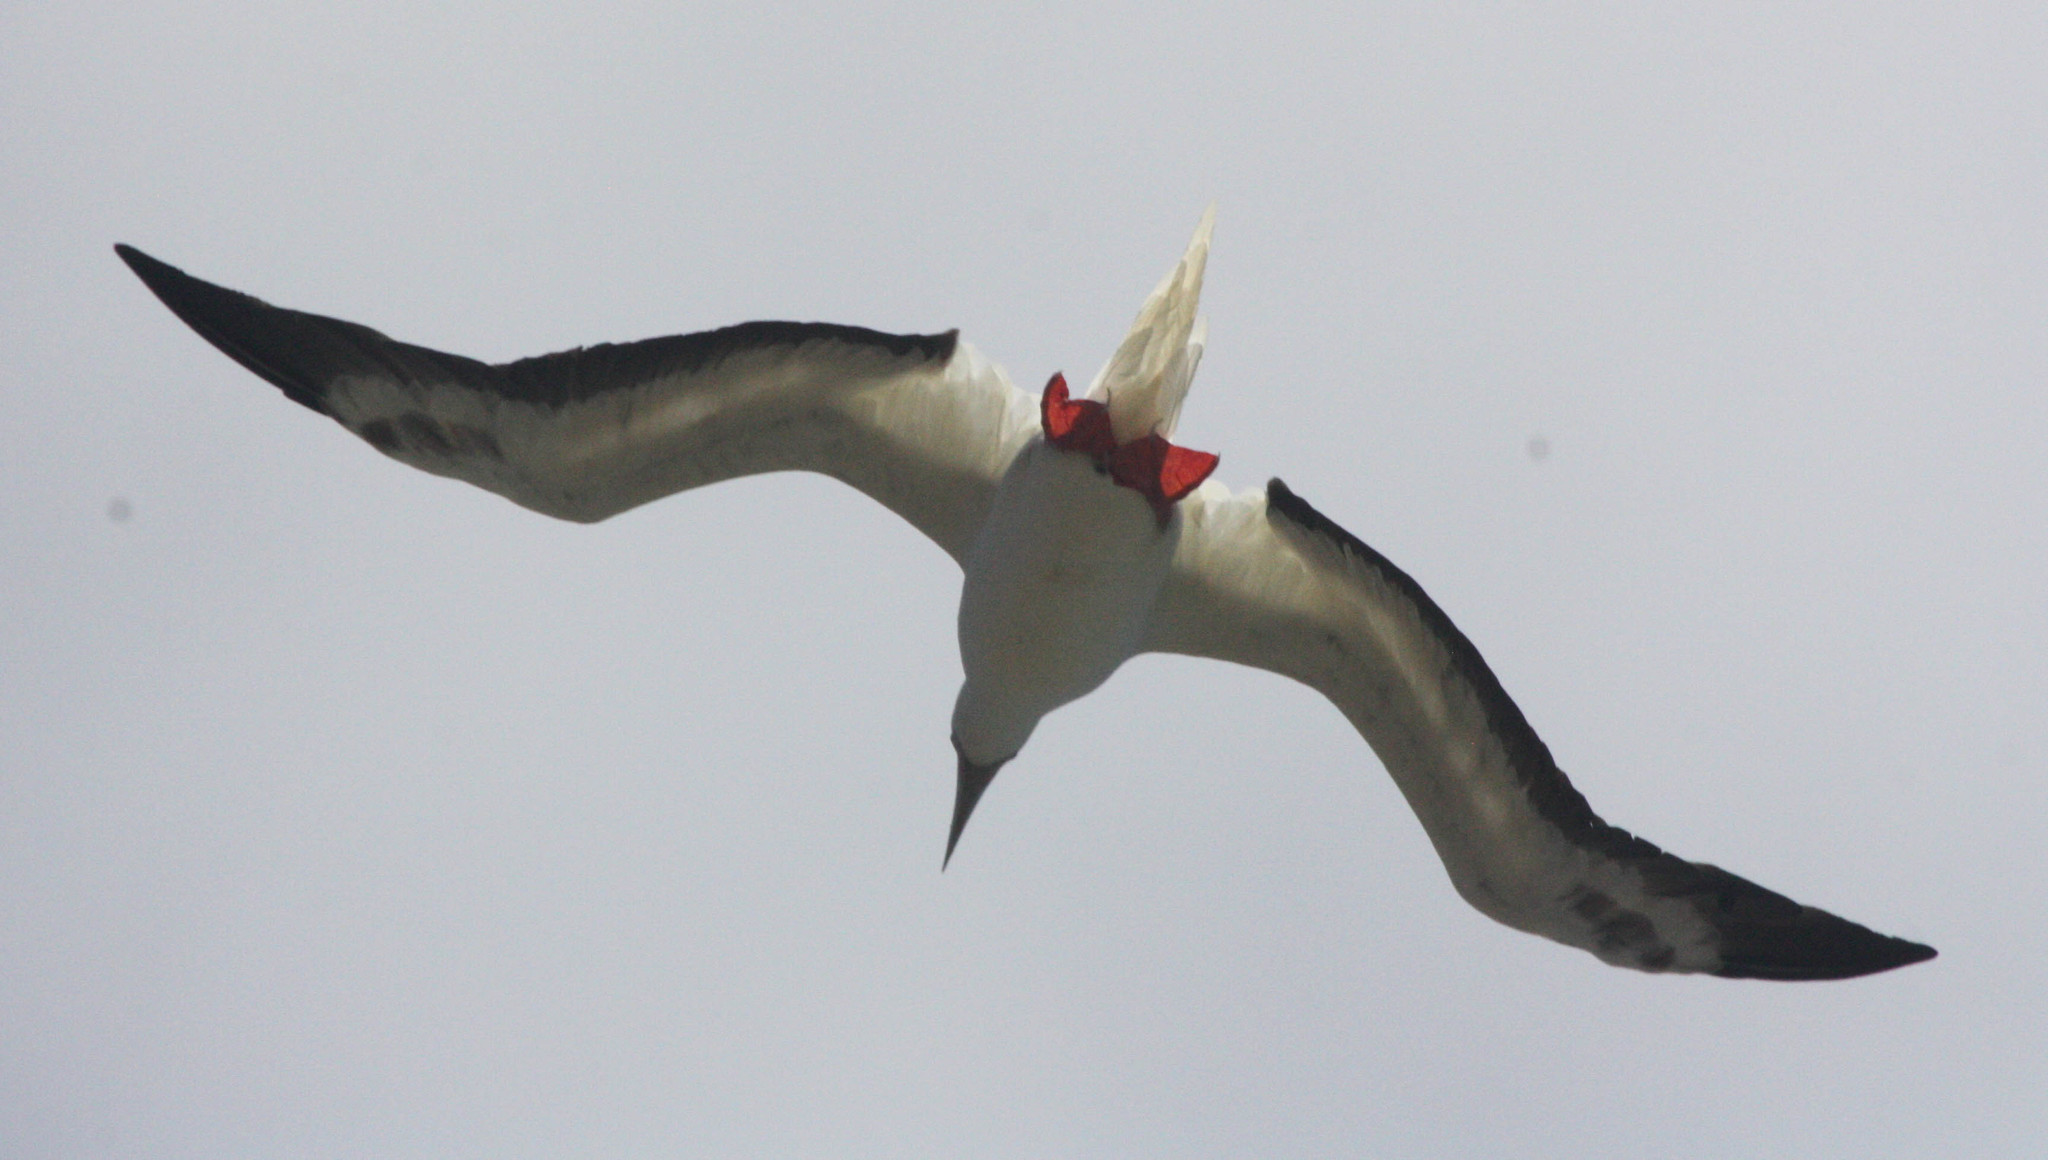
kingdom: Animalia
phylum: Chordata
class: Aves
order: Suliformes
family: Sulidae
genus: Sula
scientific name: Sula sula
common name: Red-footed booby
